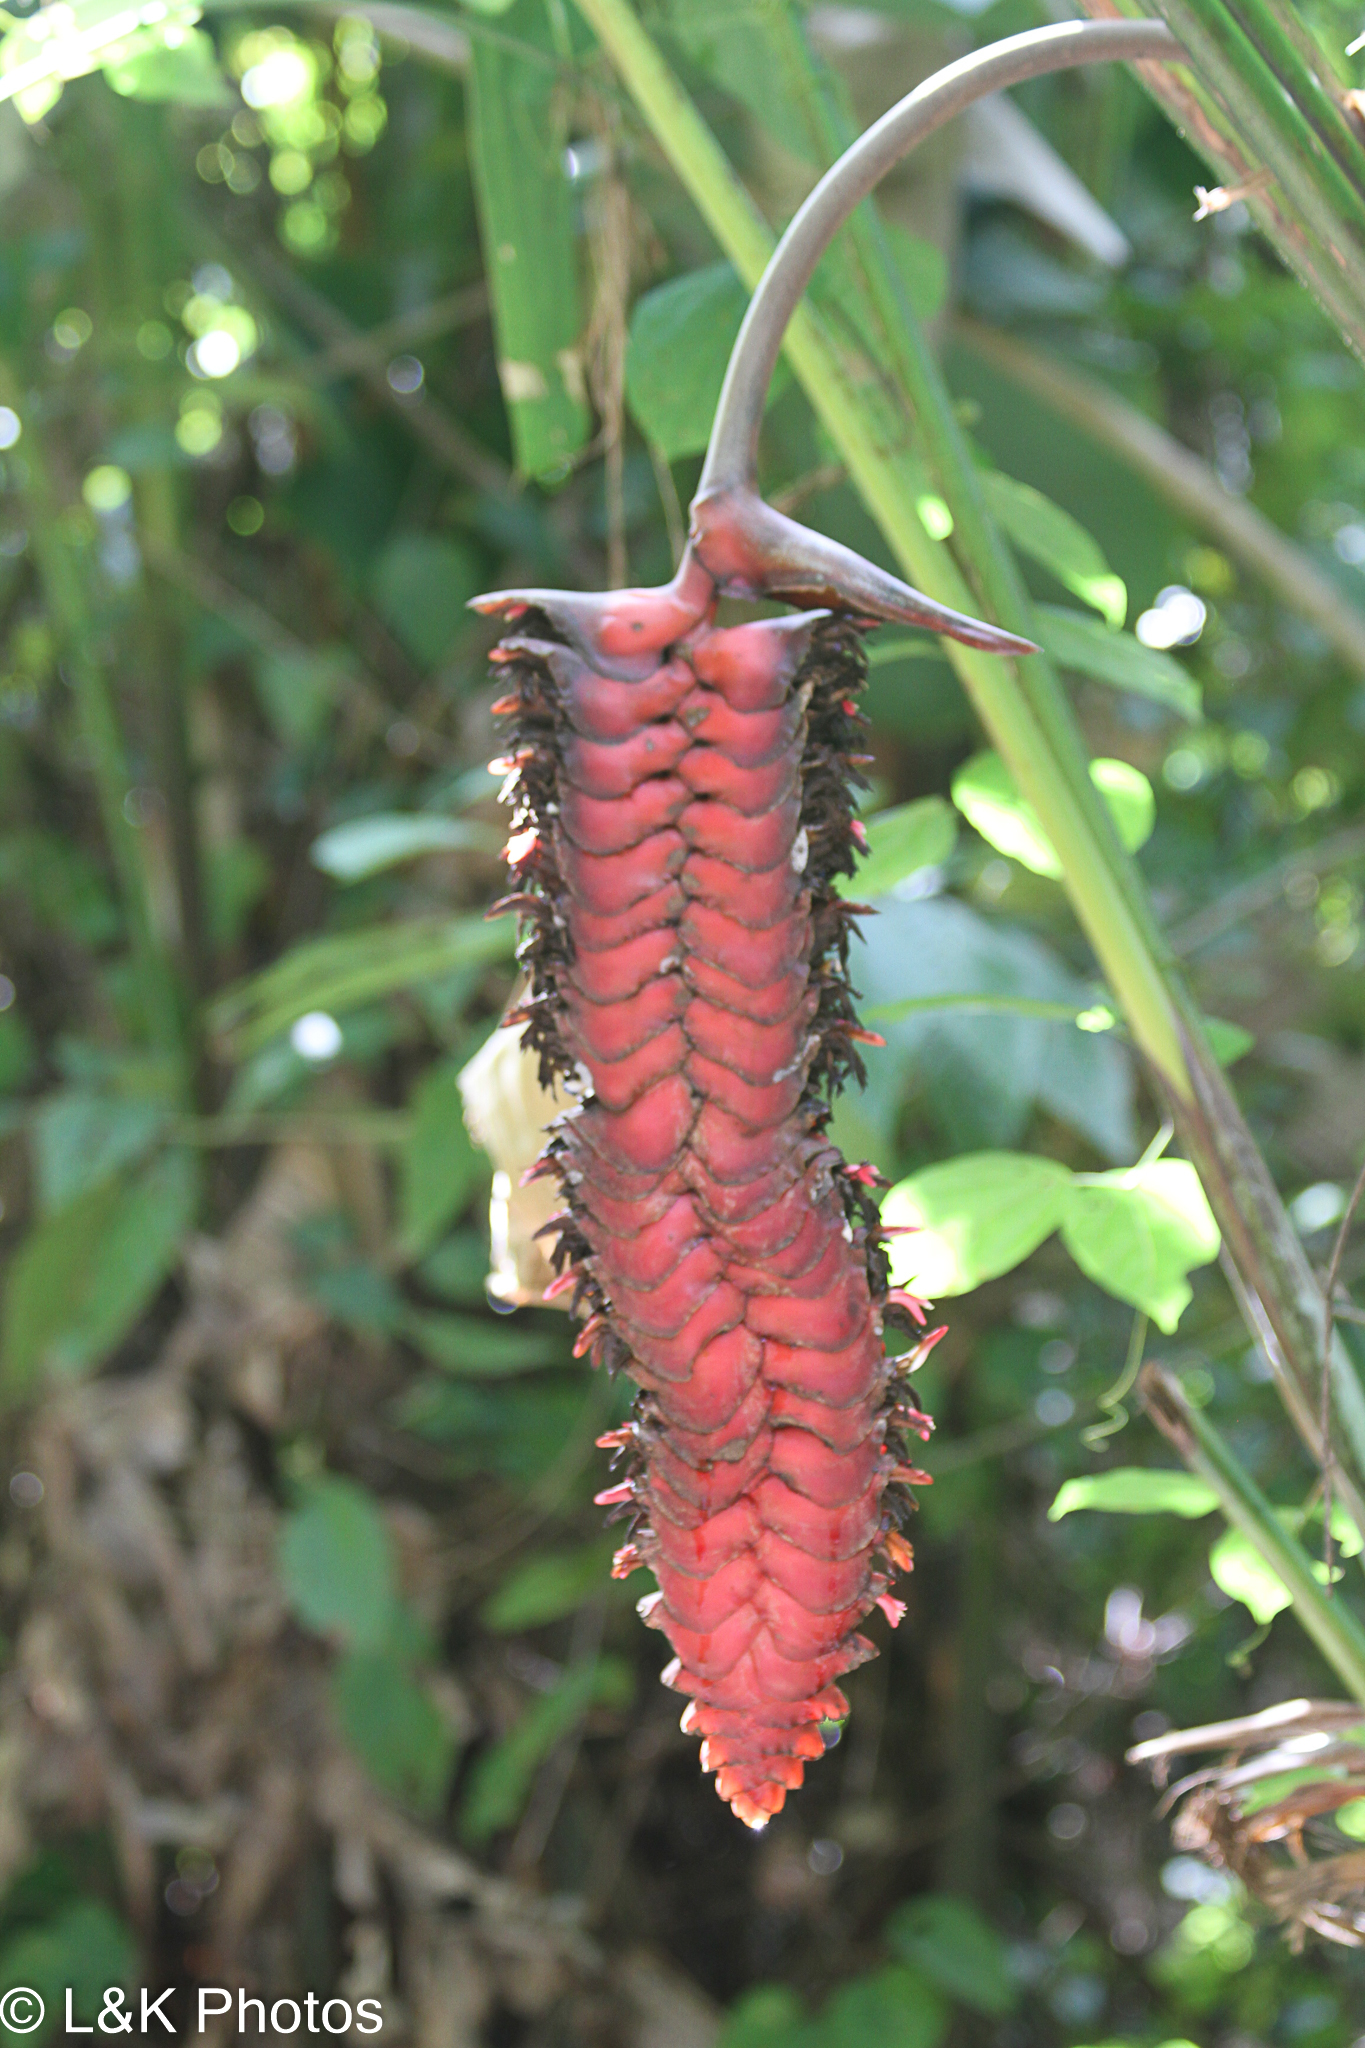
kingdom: Plantae
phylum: Tracheophyta
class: Liliopsida
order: Zingiberales
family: Heliconiaceae
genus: Heliconia
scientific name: Heliconia mariae
